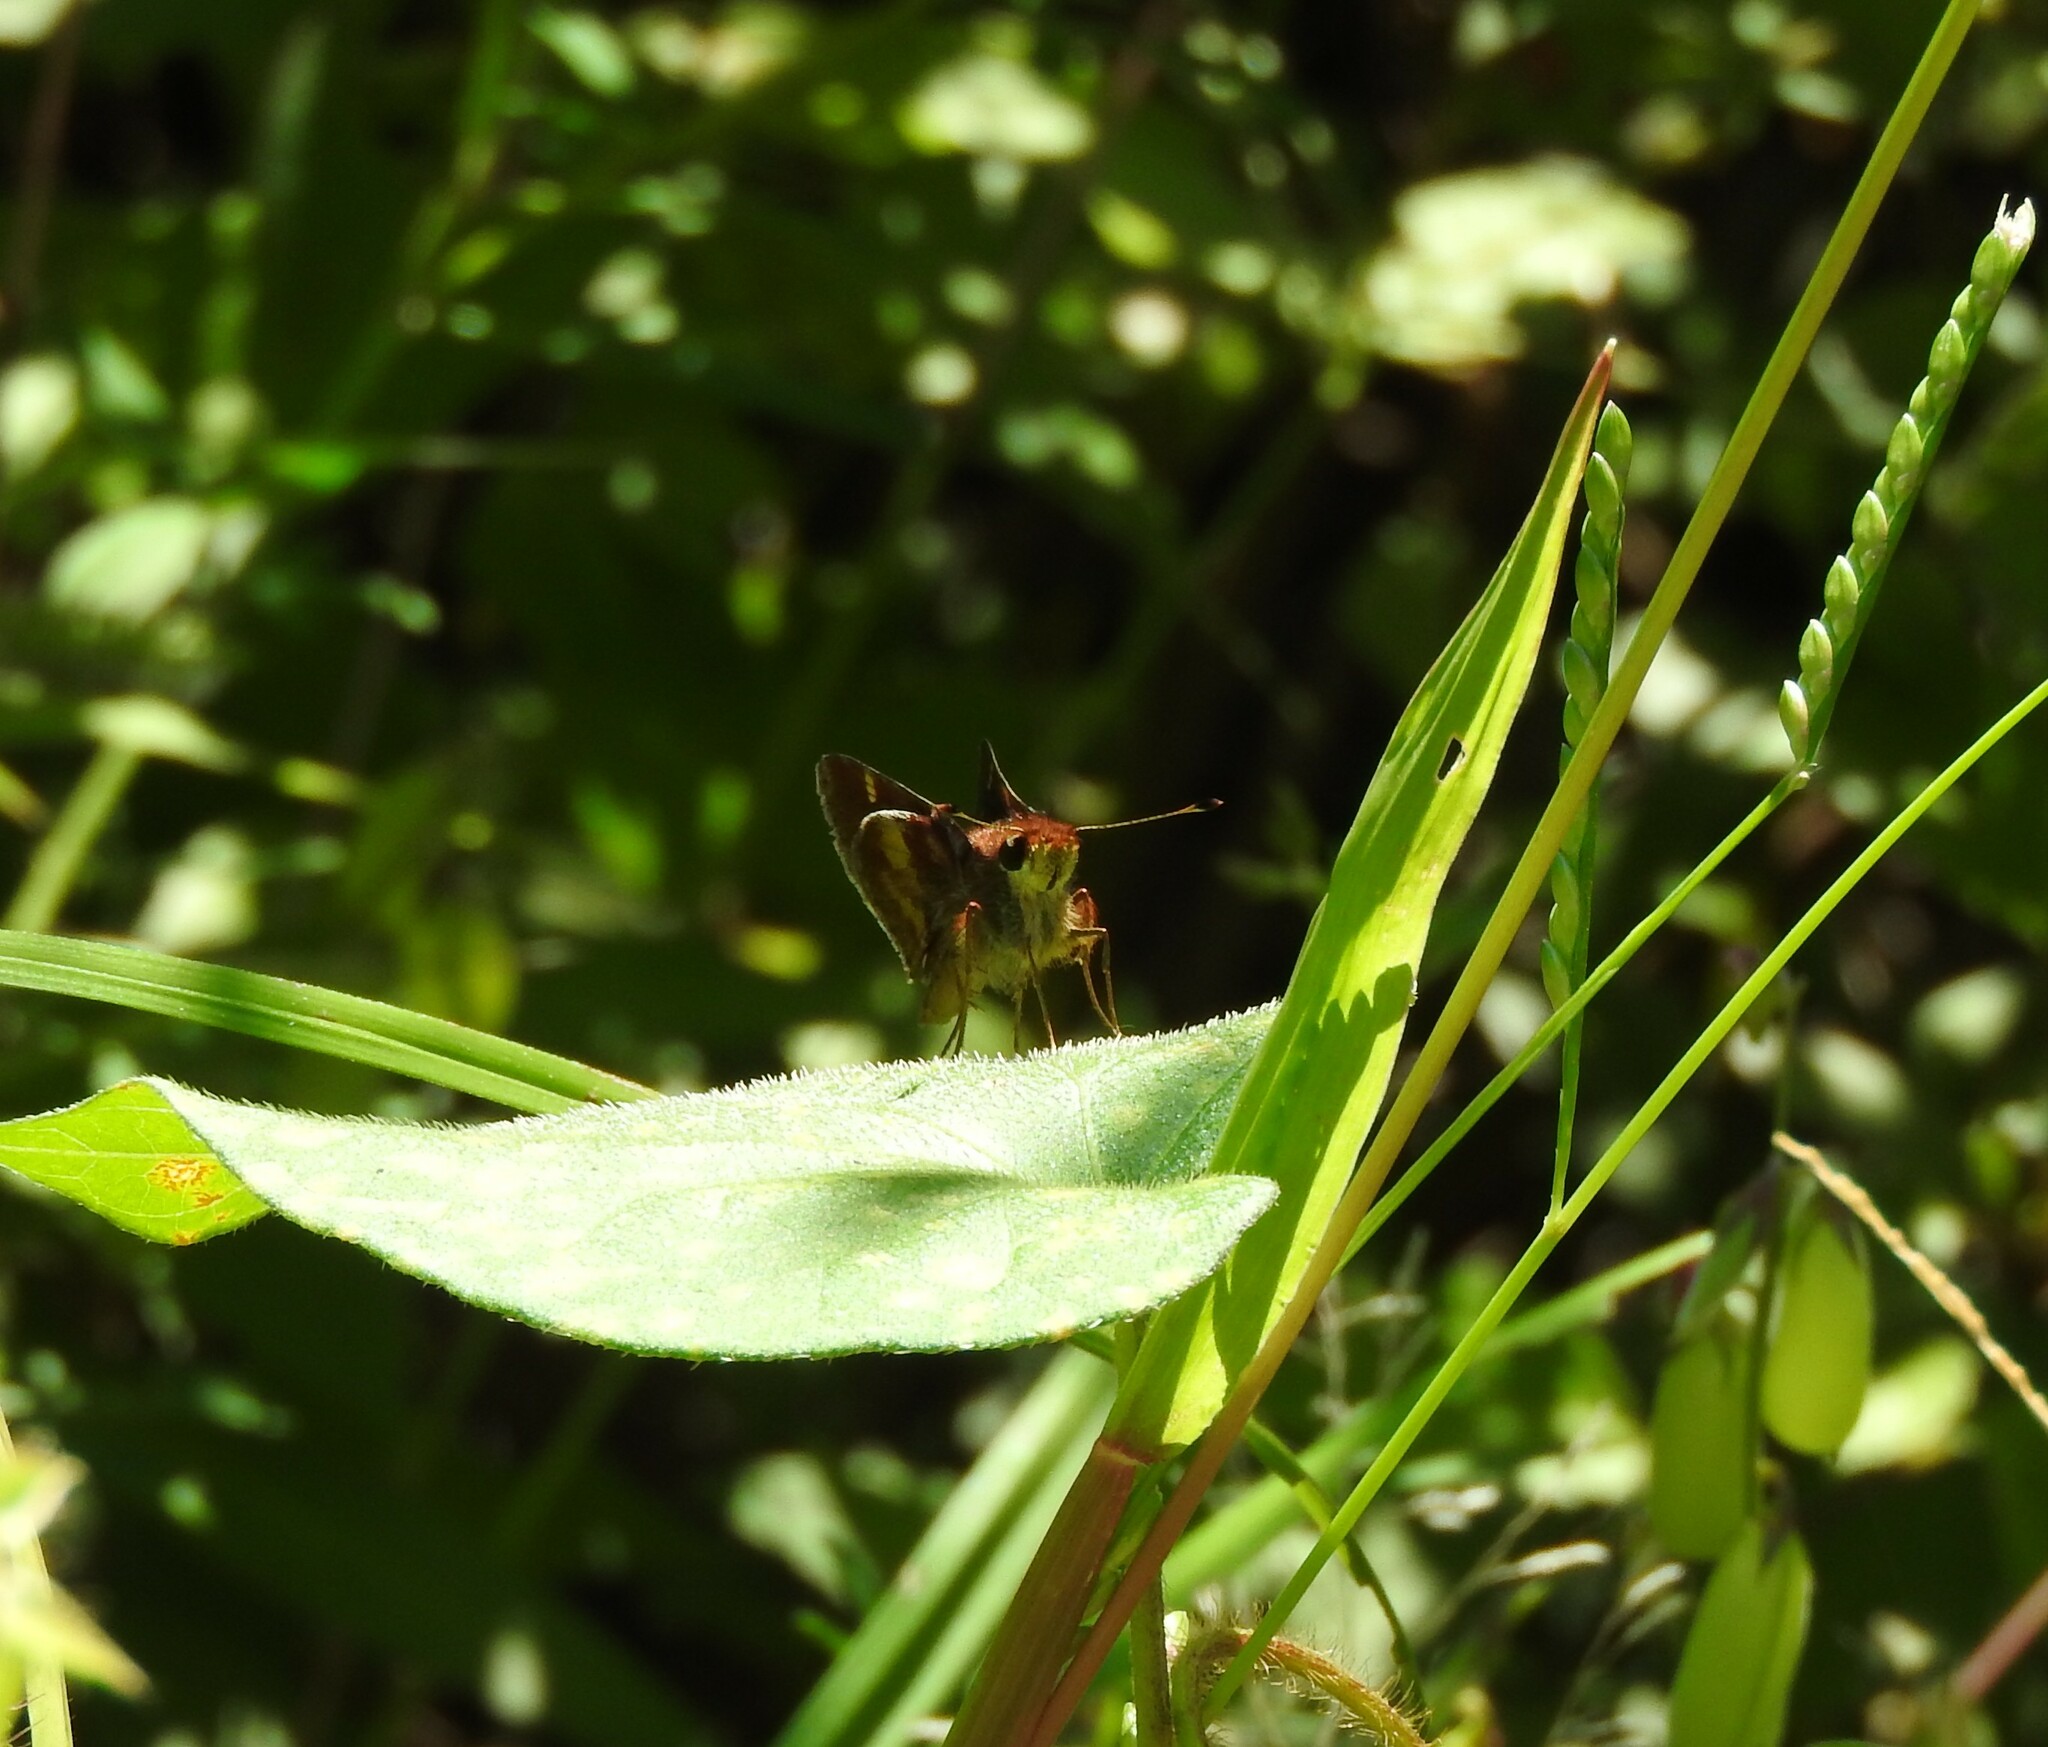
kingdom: Animalia
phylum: Arthropoda
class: Insecta
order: Lepidoptera
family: Hesperiidae
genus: Lon
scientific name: Lon
